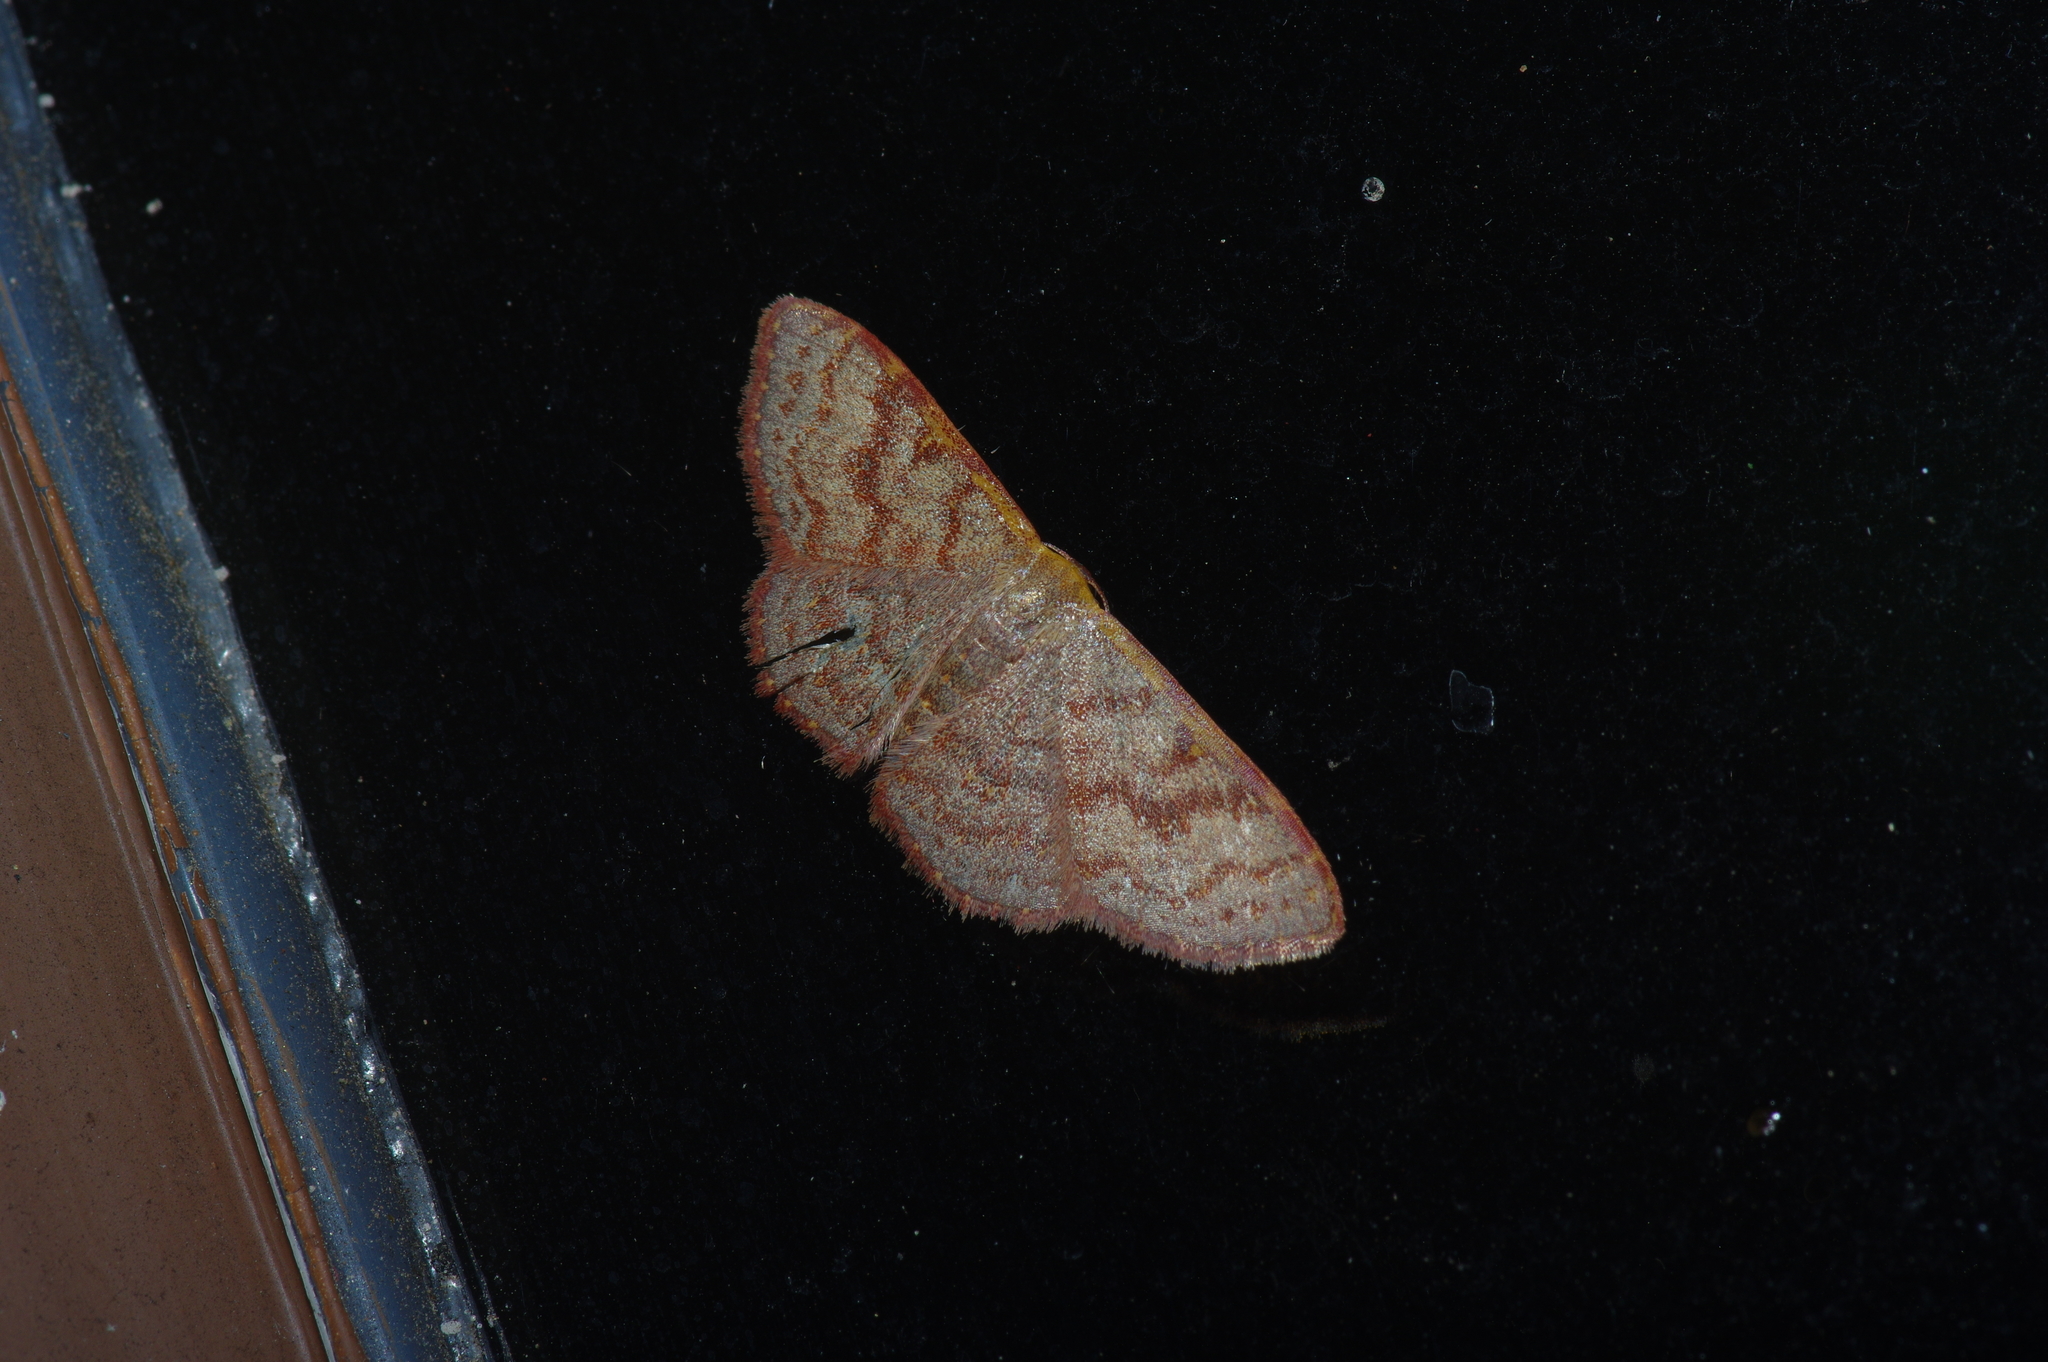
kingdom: Animalia
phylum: Arthropoda
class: Insecta
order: Lepidoptera
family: Geometridae
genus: Leptostales
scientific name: Leptostales pannaria
